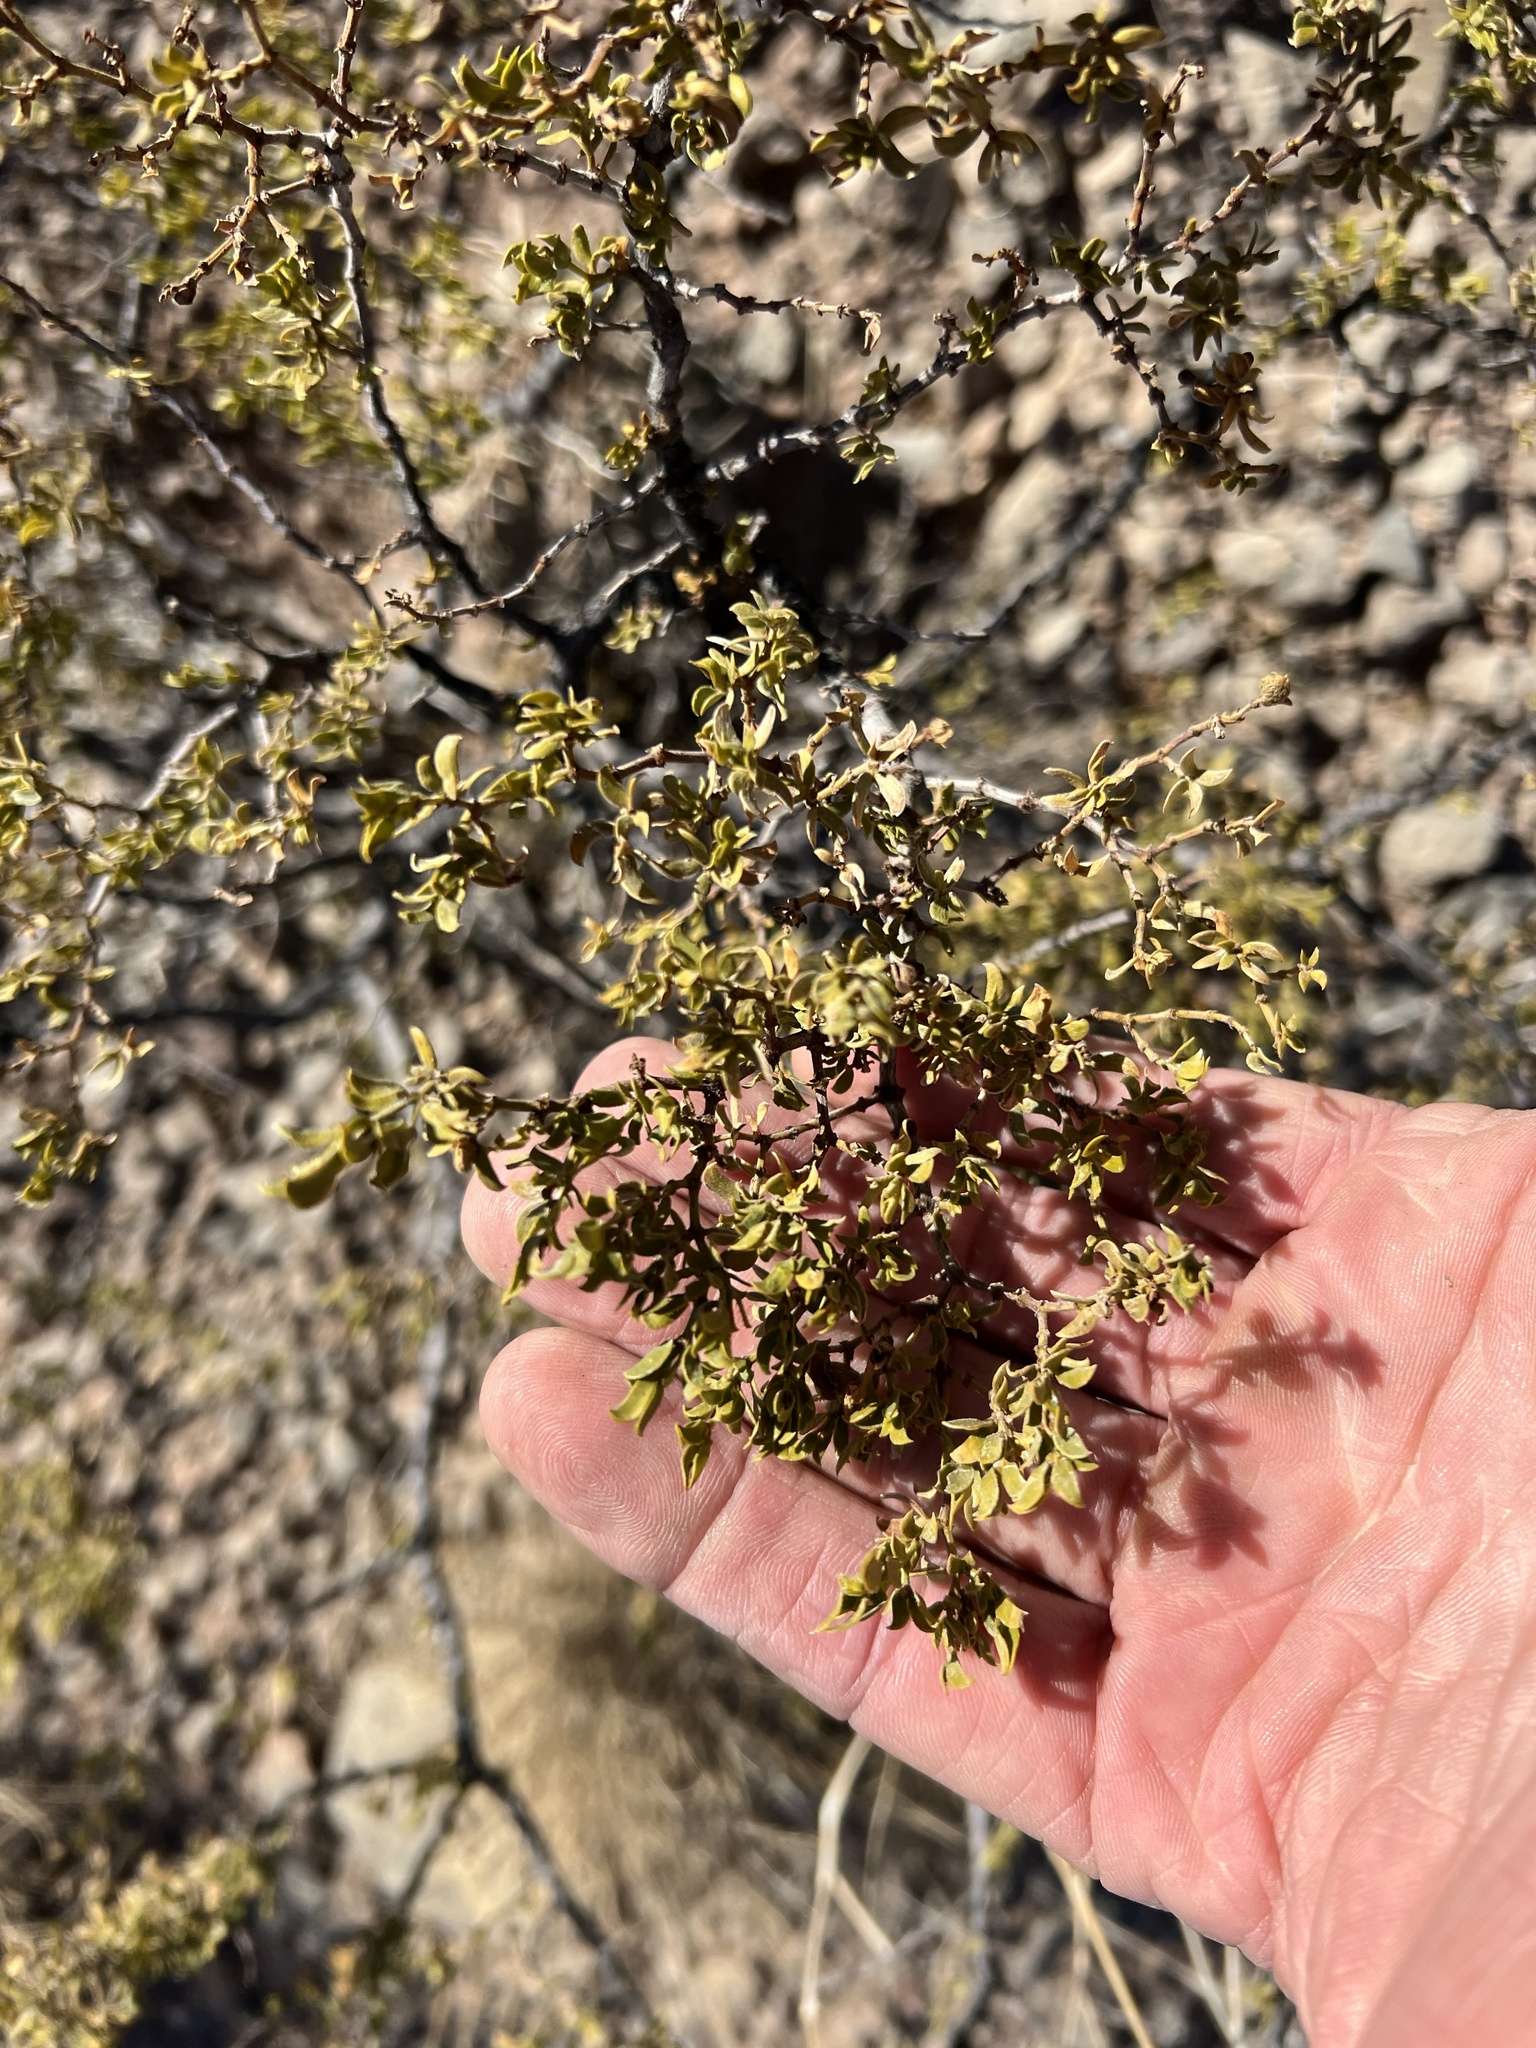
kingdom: Plantae
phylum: Tracheophyta
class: Magnoliopsida
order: Zygophyllales
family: Zygophyllaceae
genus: Larrea
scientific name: Larrea tridentata
